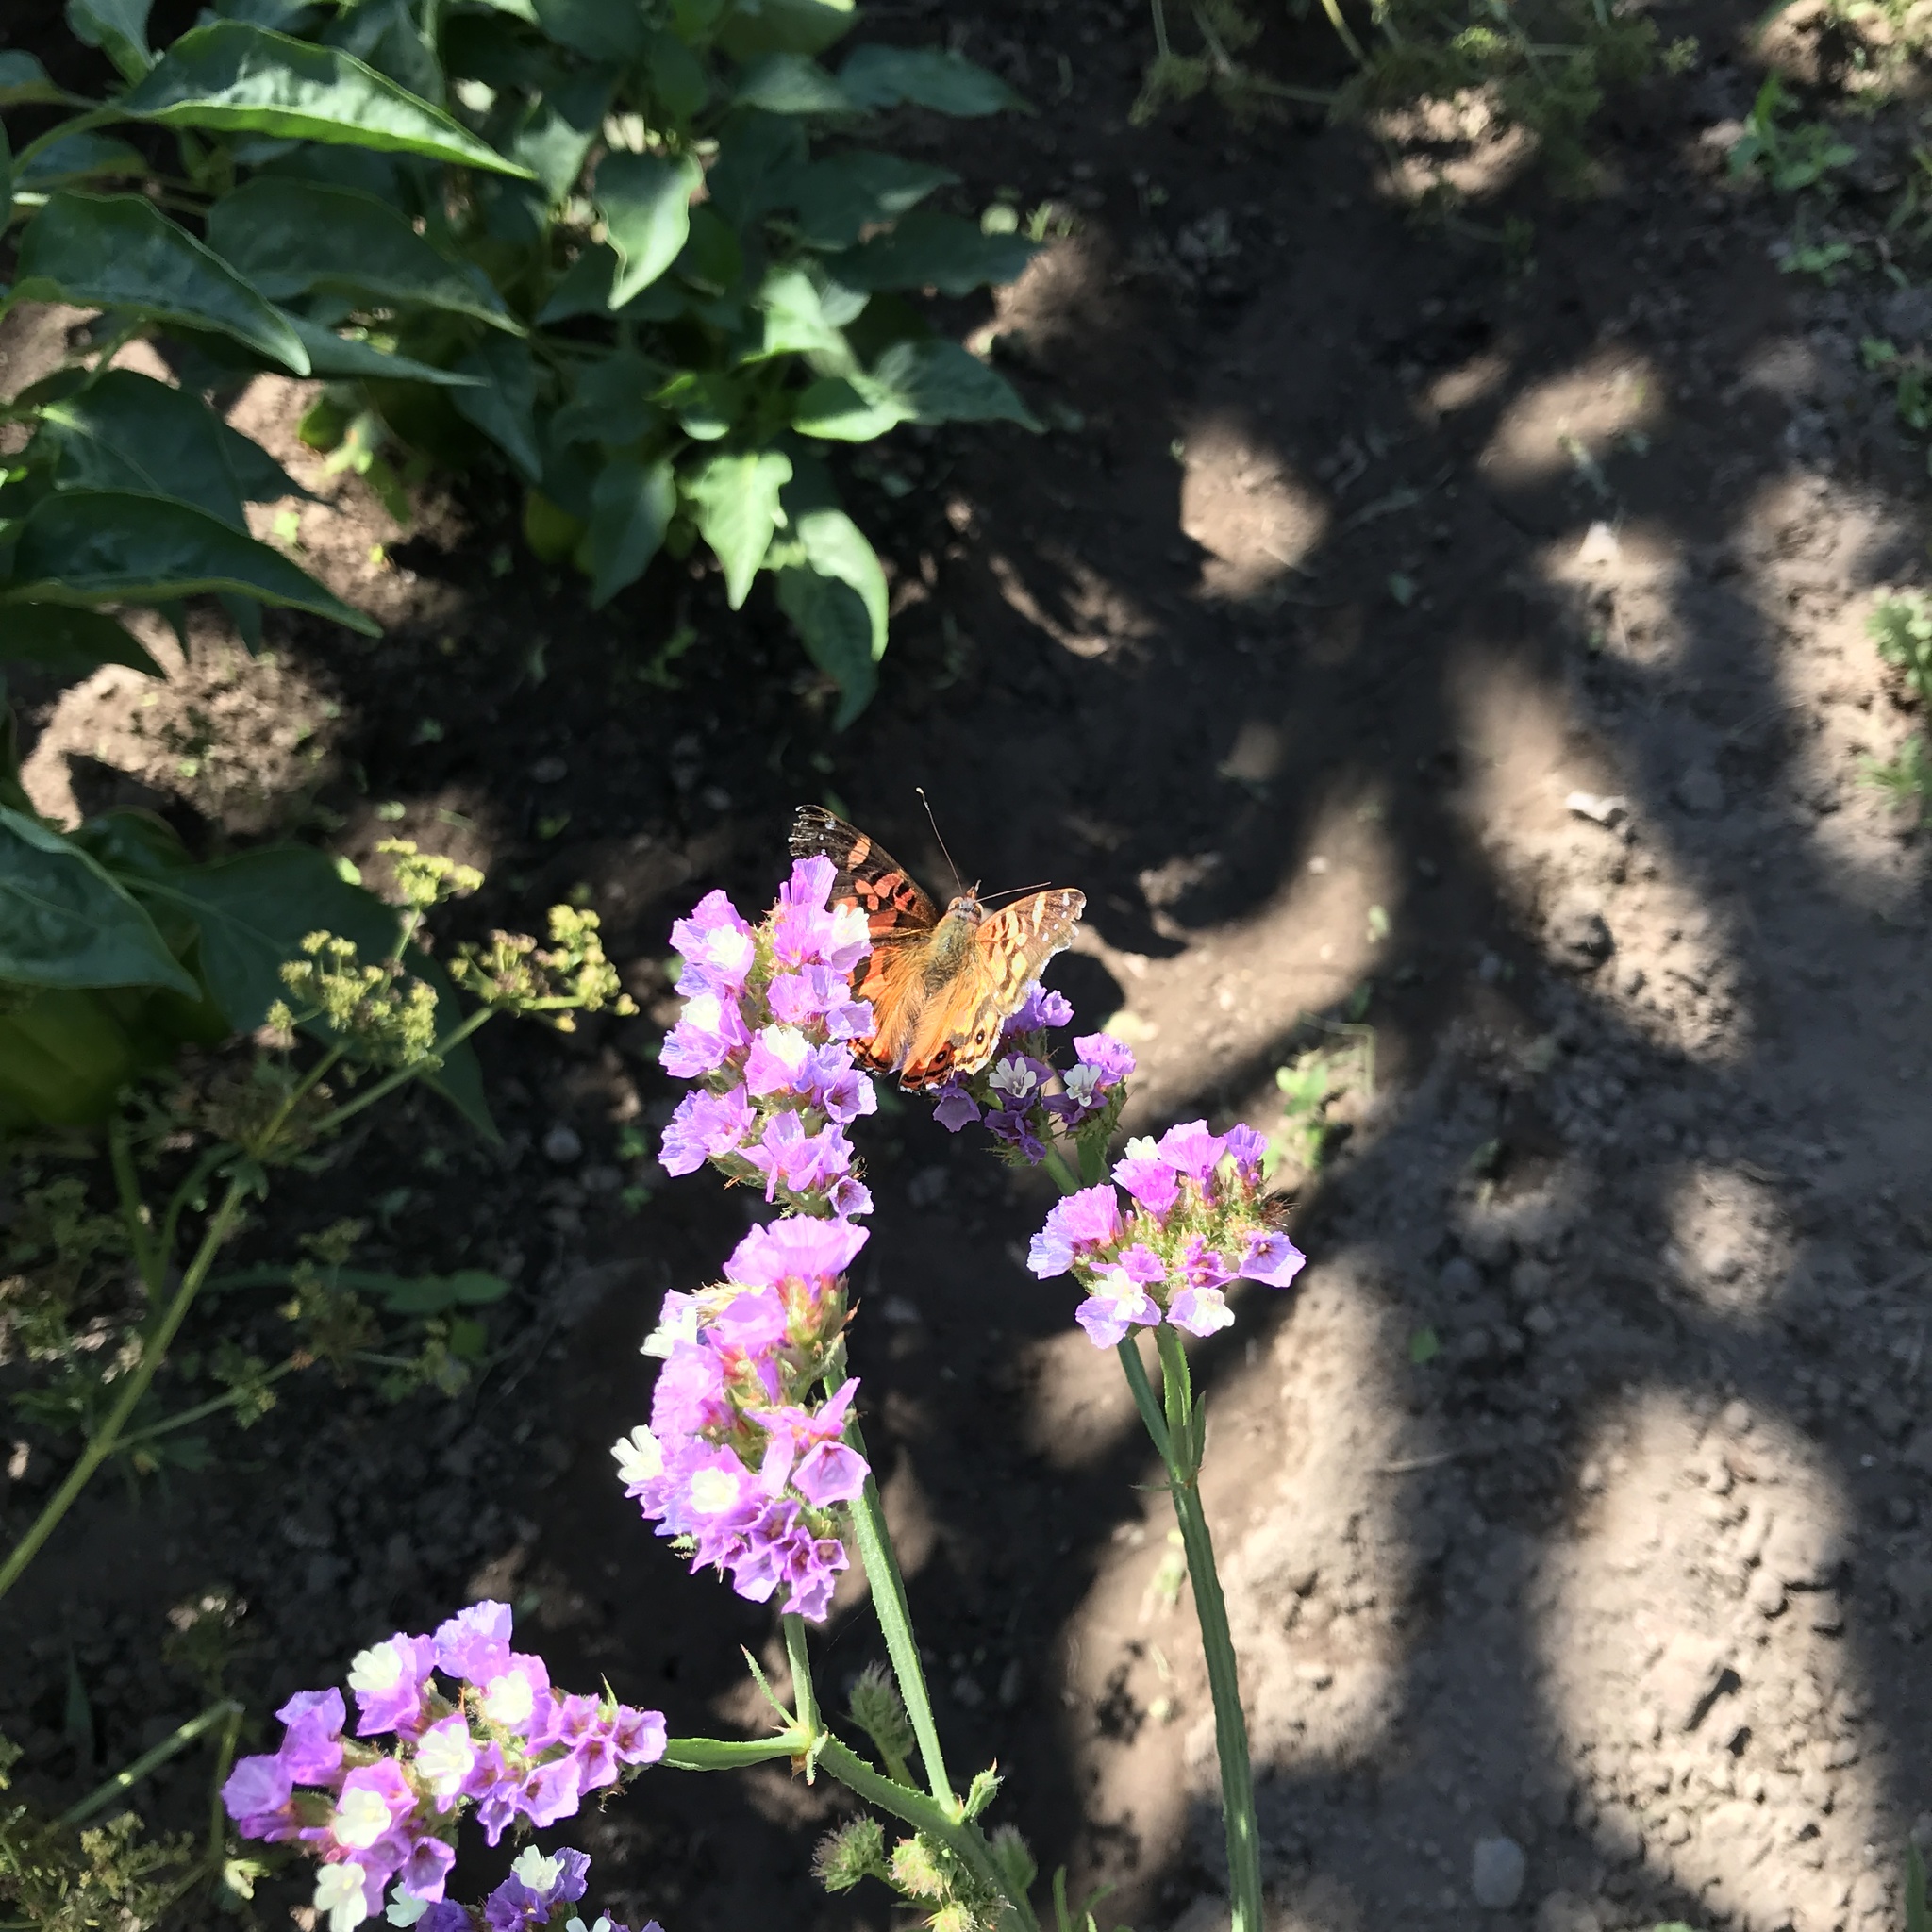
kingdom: Animalia
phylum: Arthropoda
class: Insecta
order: Lepidoptera
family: Nymphalidae
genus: Vanessa
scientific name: Vanessa terpsichore
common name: Chilean lady
